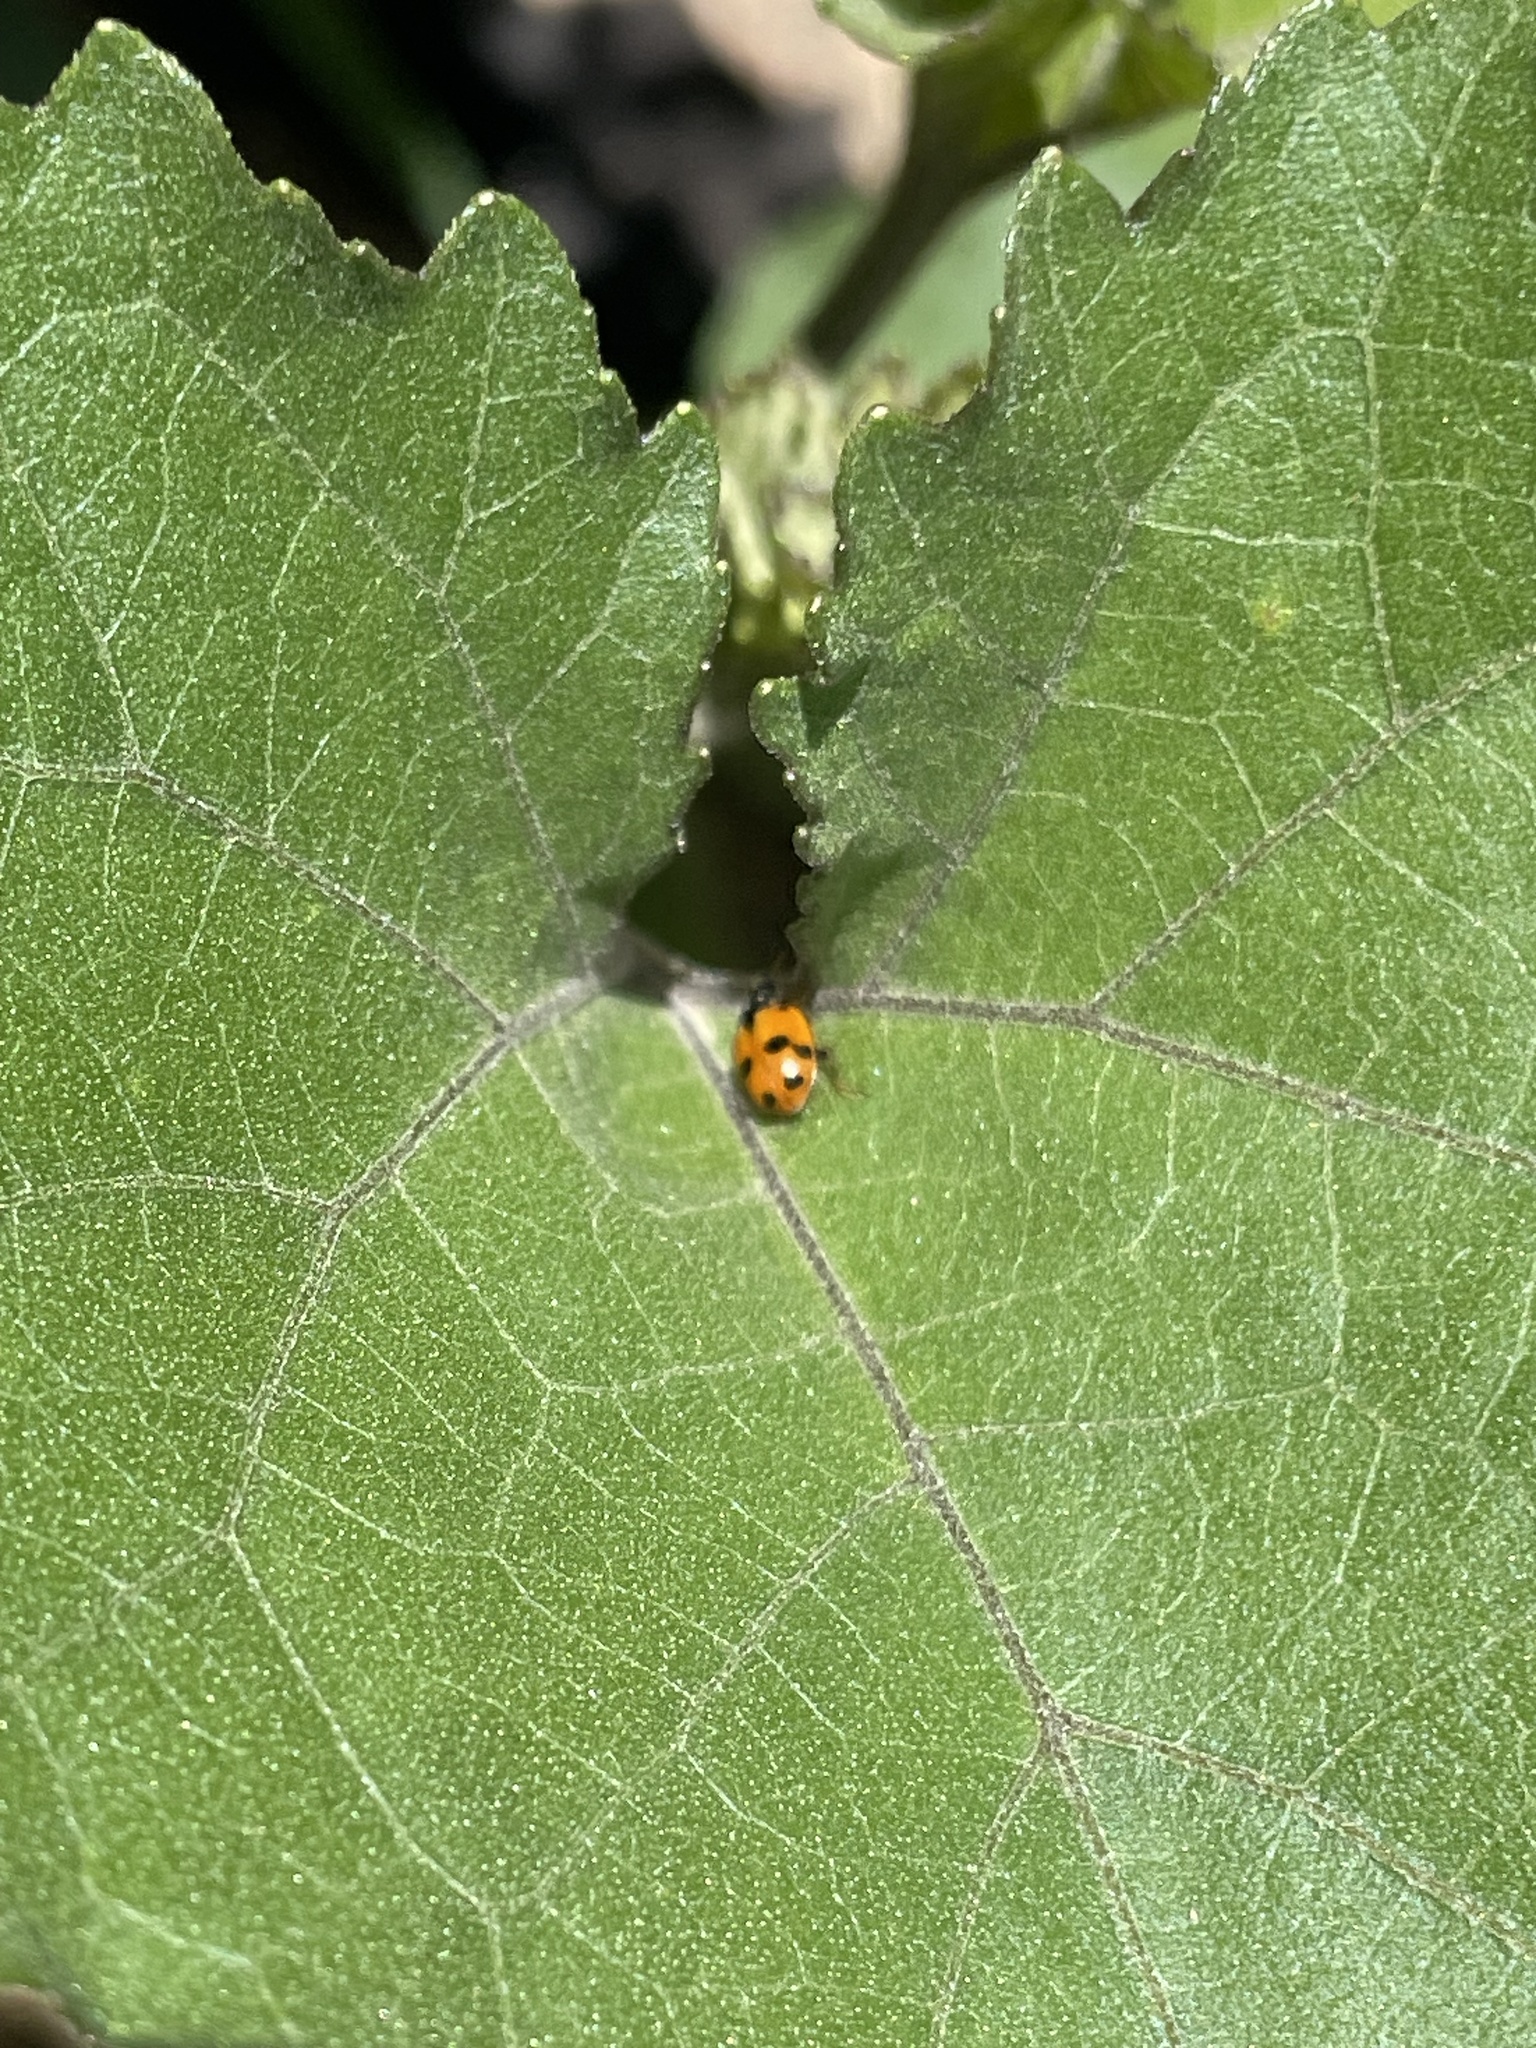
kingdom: Animalia
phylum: Arthropoda
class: Insecta
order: Coleoptera
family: Coccinellidae
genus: Hippodamia
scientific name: Hippodamia variegata
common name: Ladybird beetle
